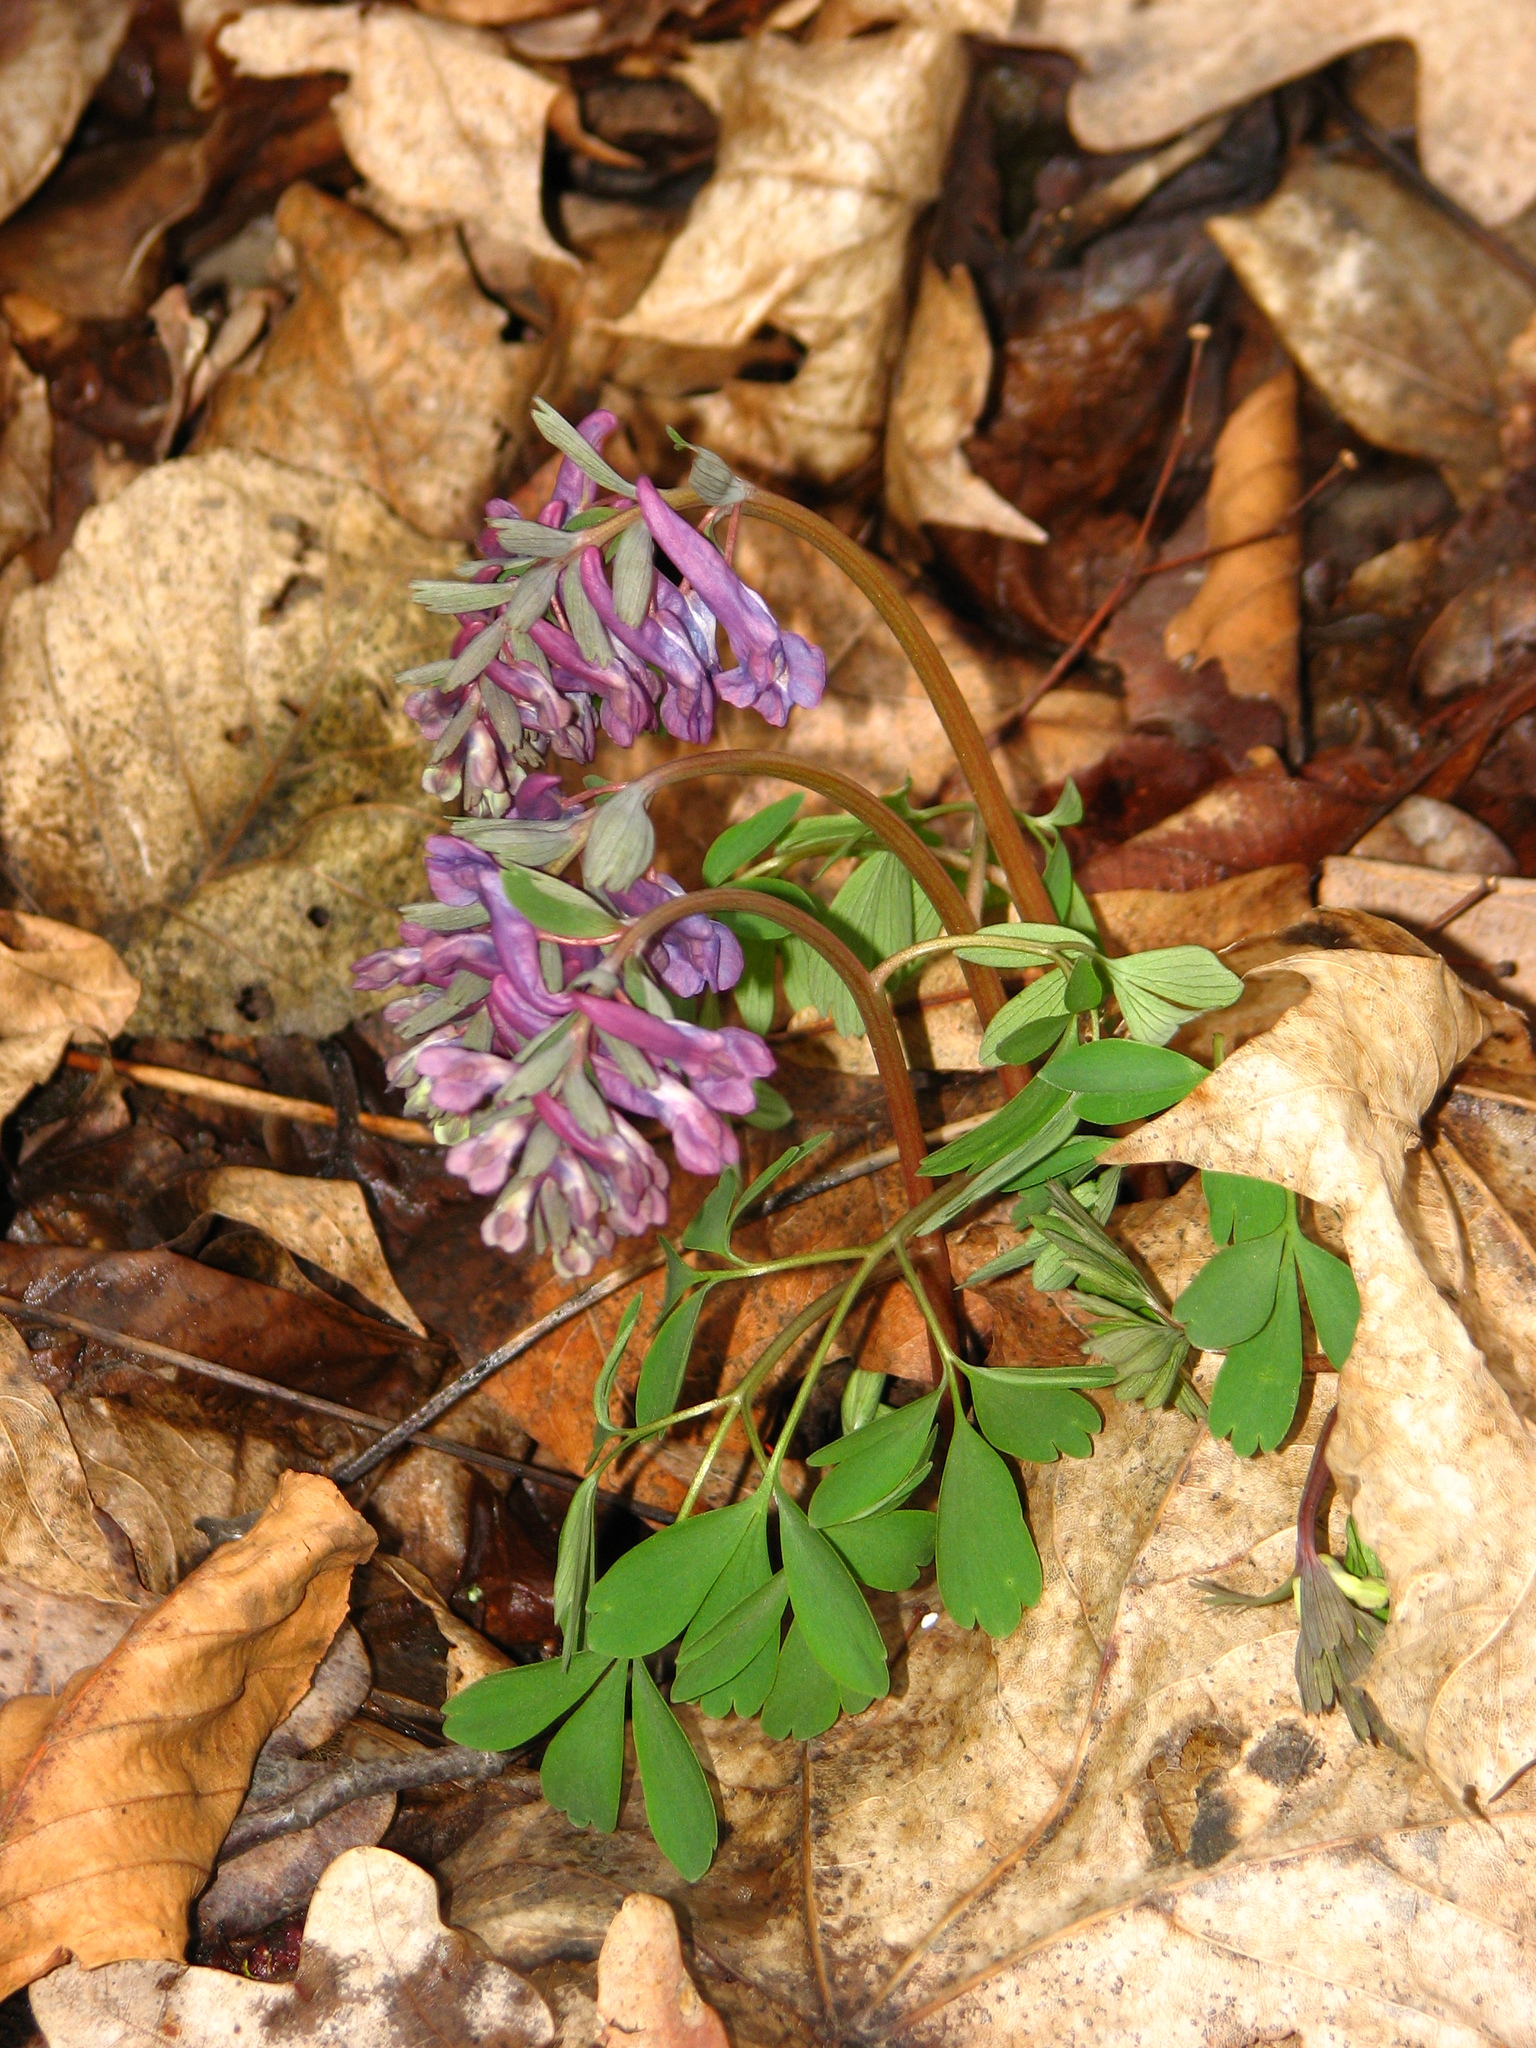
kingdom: Plantae
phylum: Tracheophyta
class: Magnoliopsida
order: Ranunculales
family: Papaveraceae
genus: Corydalis
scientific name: Corydalis solida
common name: Bird-in-a-bush
